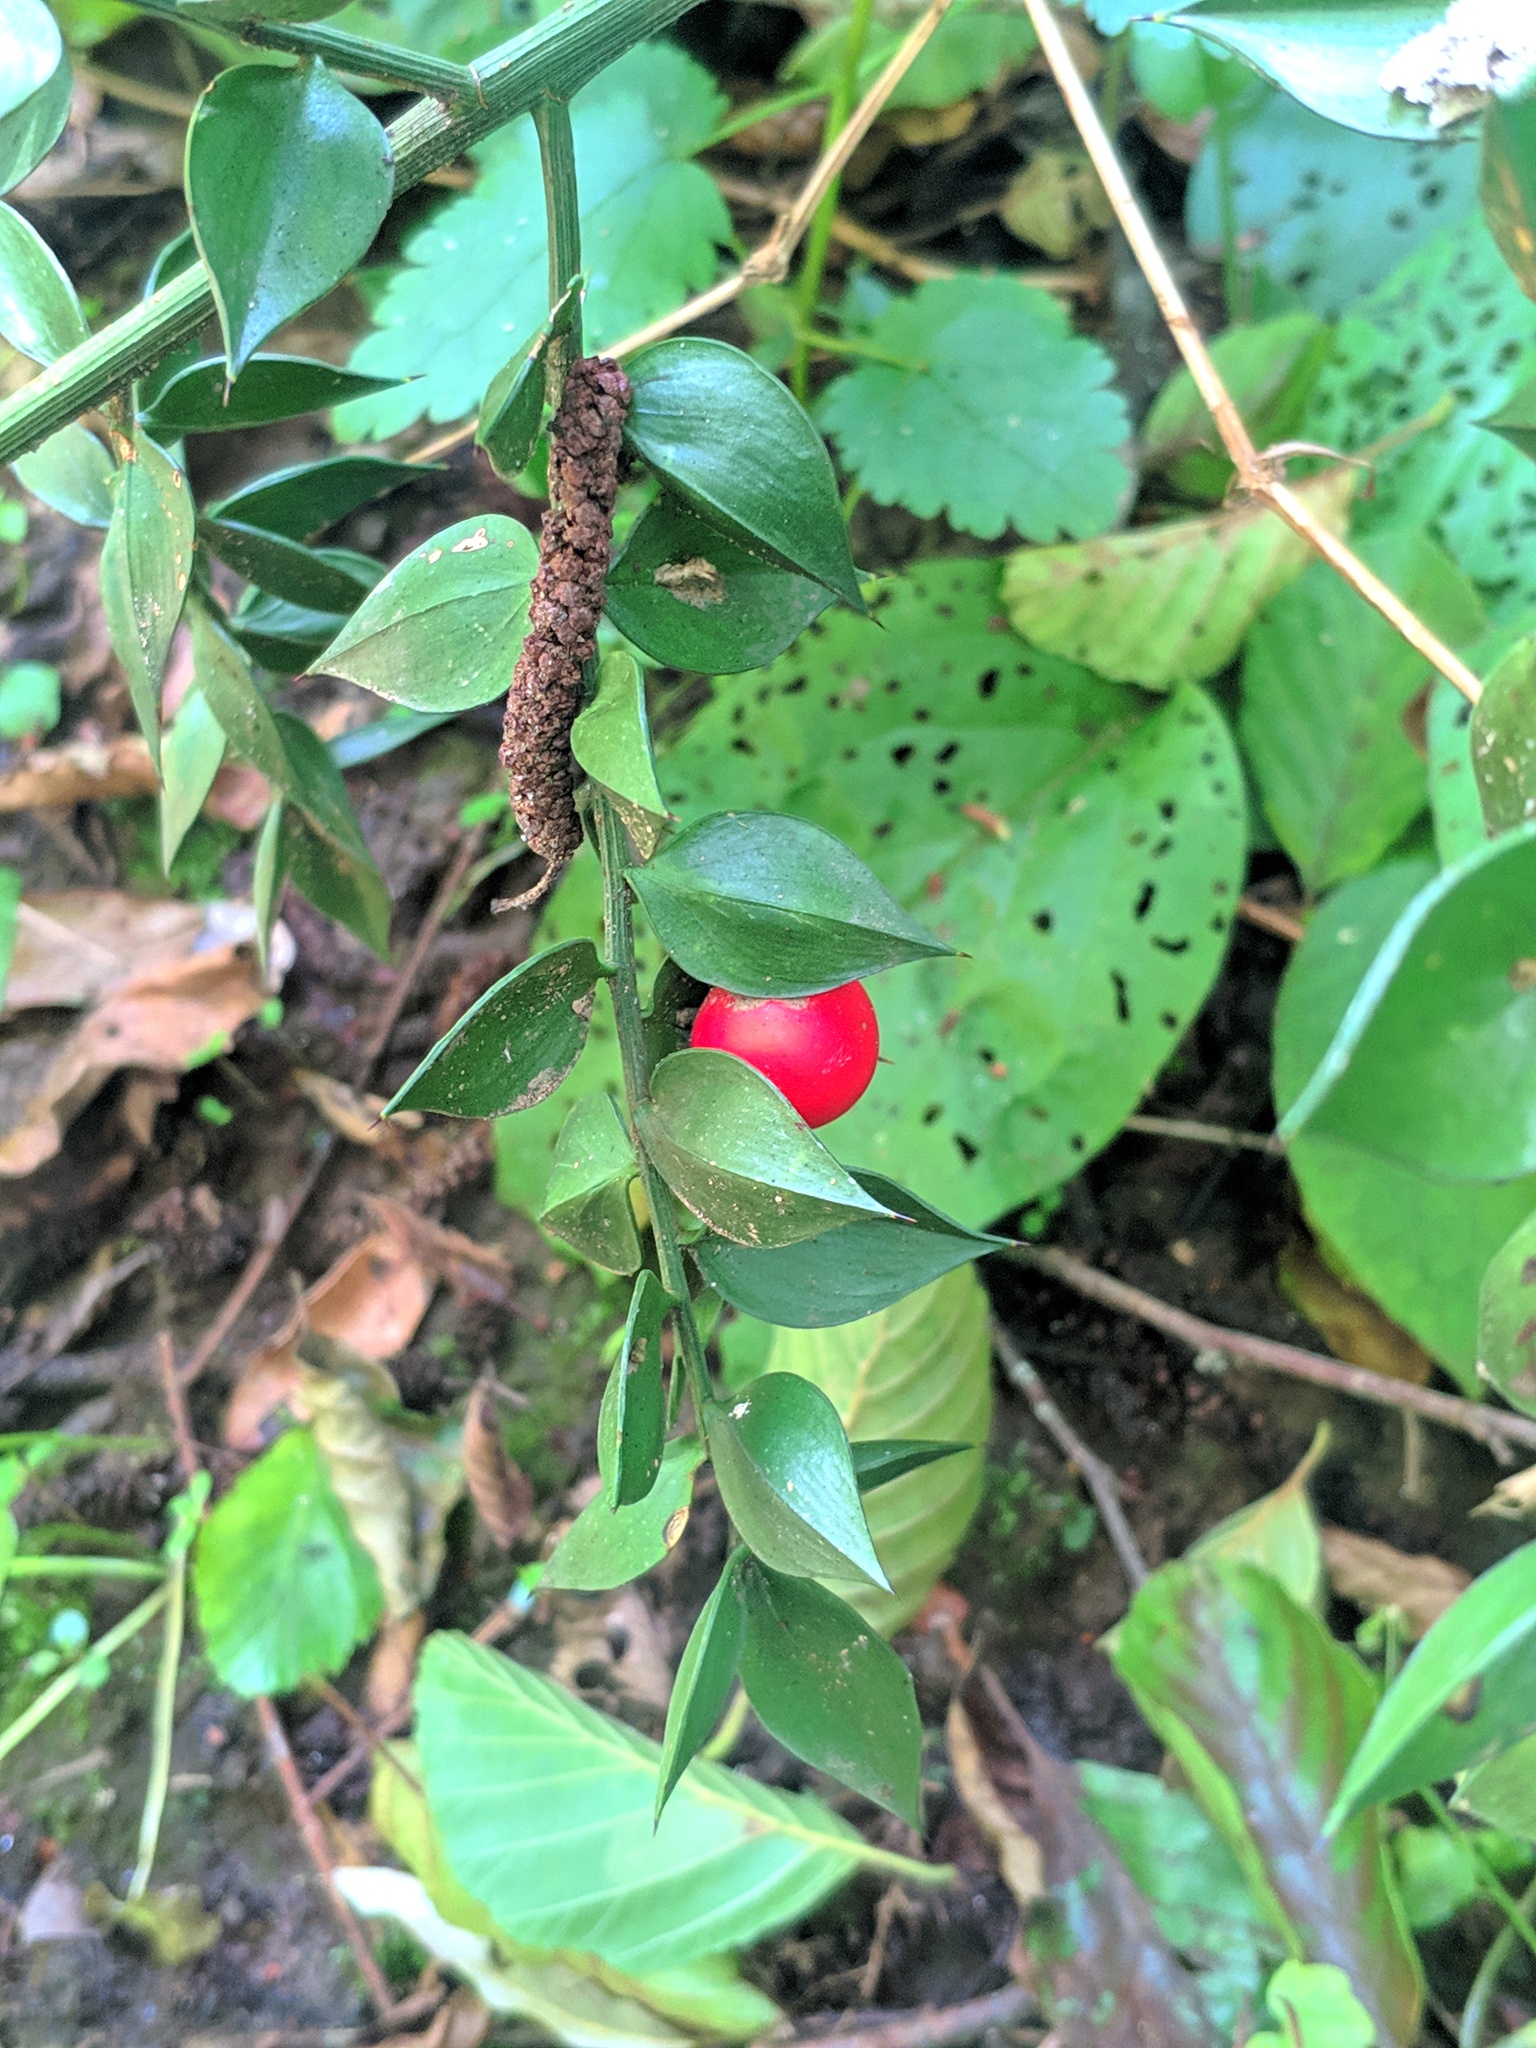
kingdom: Plantae
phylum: Tracheophyta
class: Liliopsida
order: Asparagales
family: Asparagaceae
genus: Ruscus
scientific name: Ruscus aculeatus
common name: Butcher's-broom
